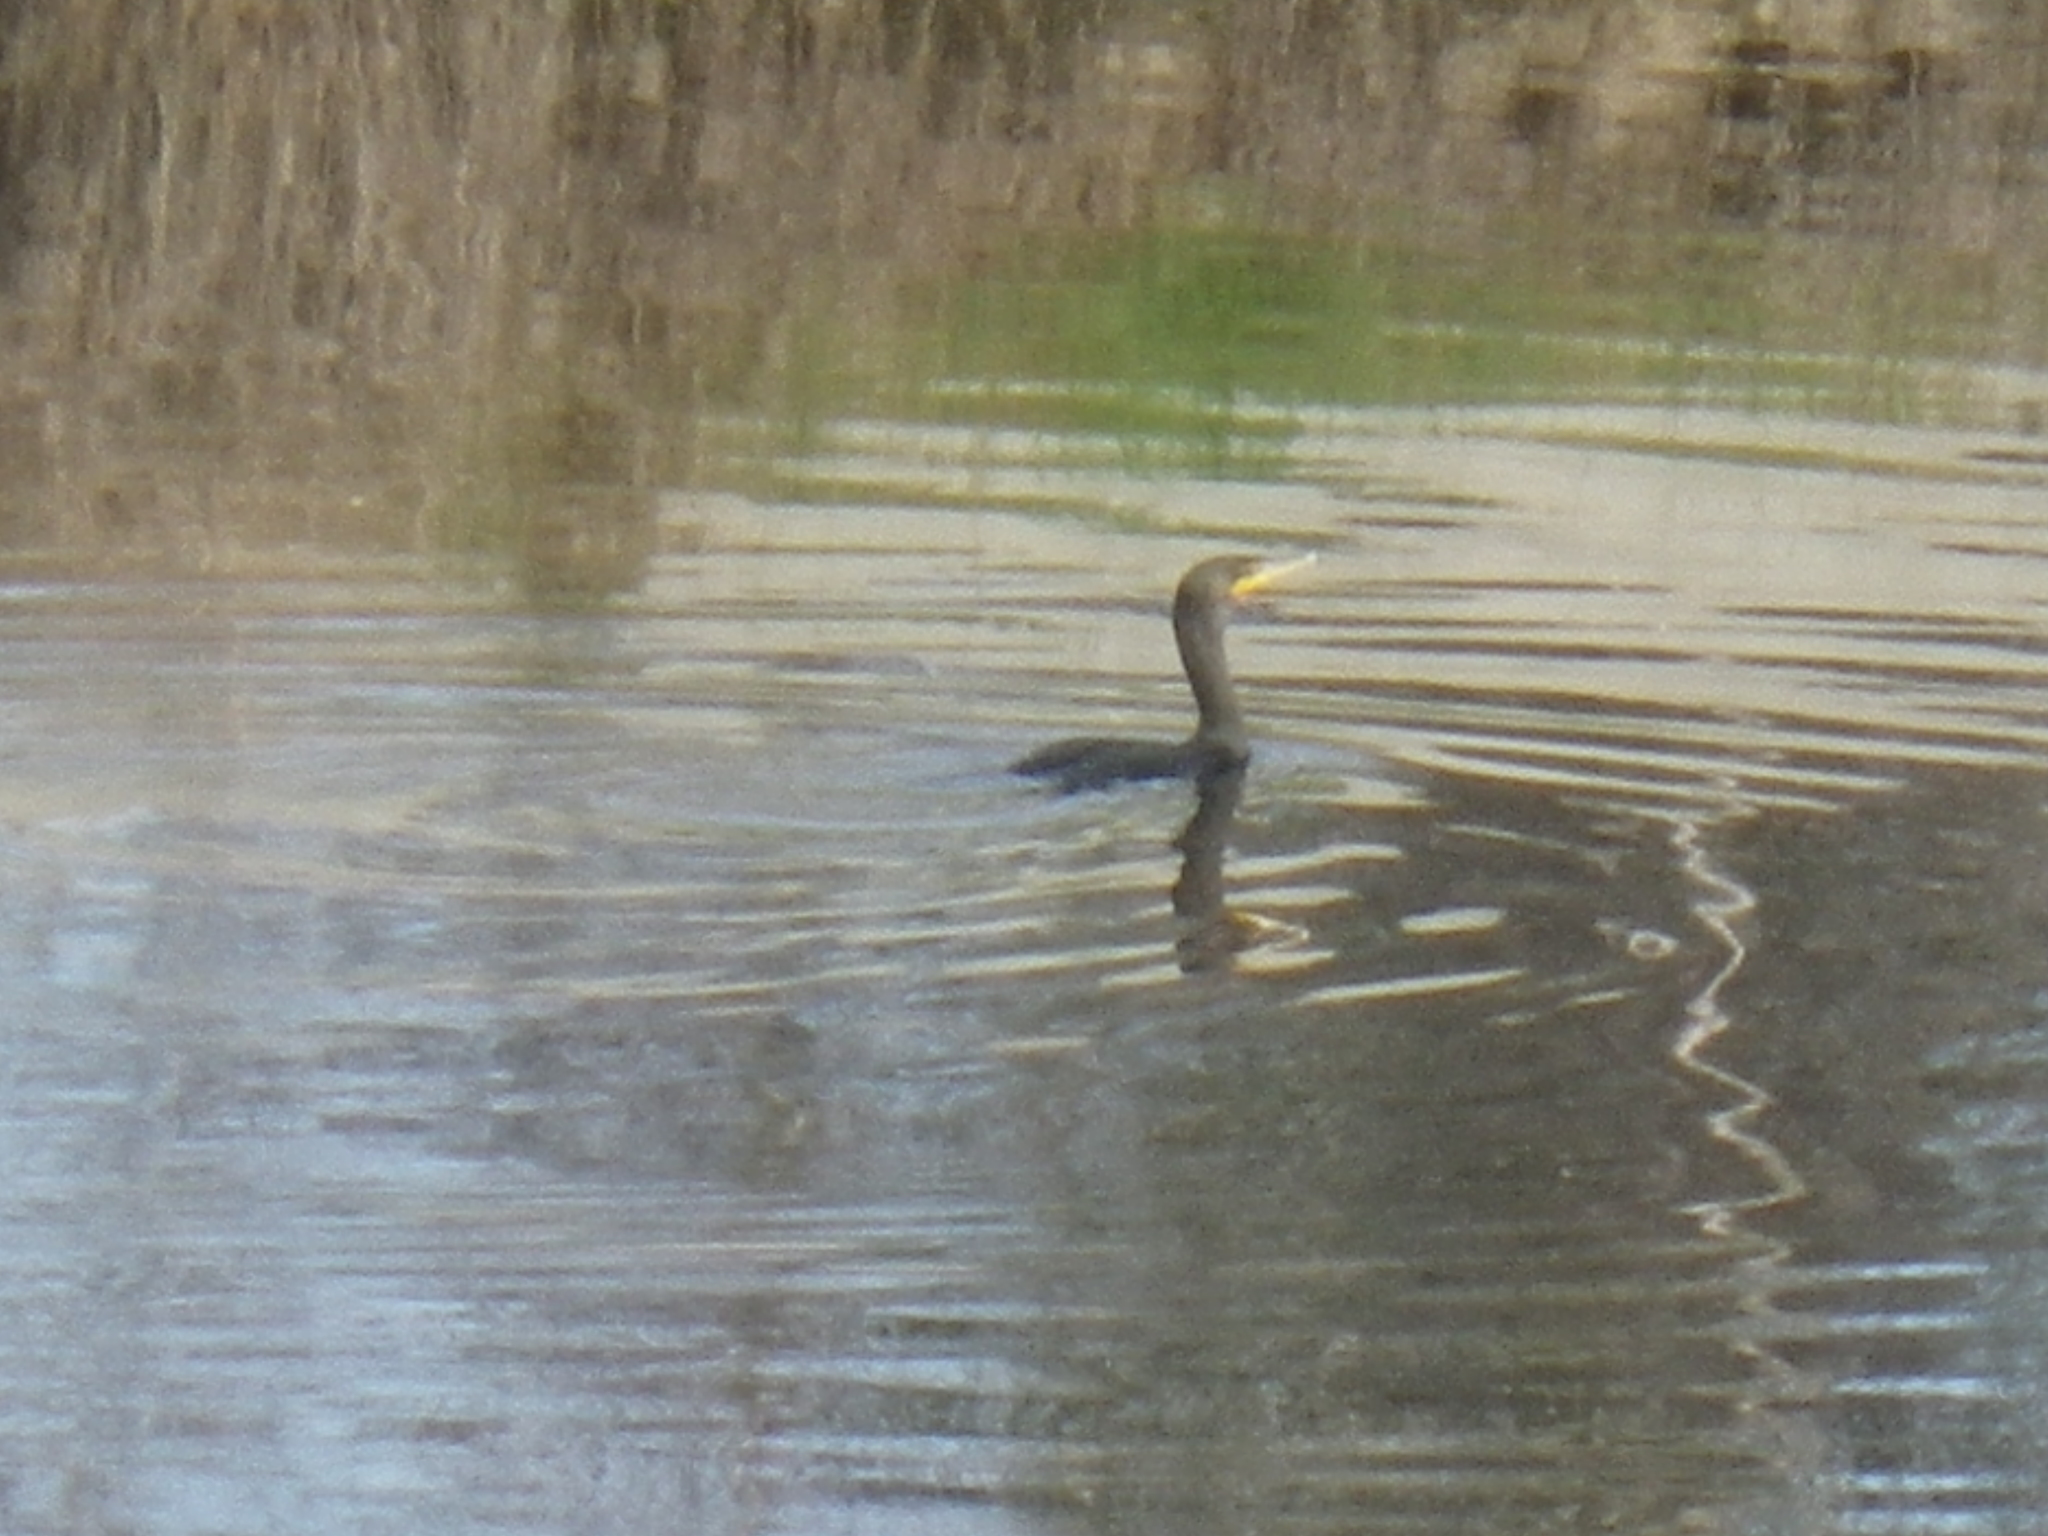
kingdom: Animalia
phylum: Chordata
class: Aves
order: Suliformes
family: Phalacrocoracidae
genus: Phalacrocorax
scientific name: Phalacrocorax auritus
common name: Double-crested cormorant
